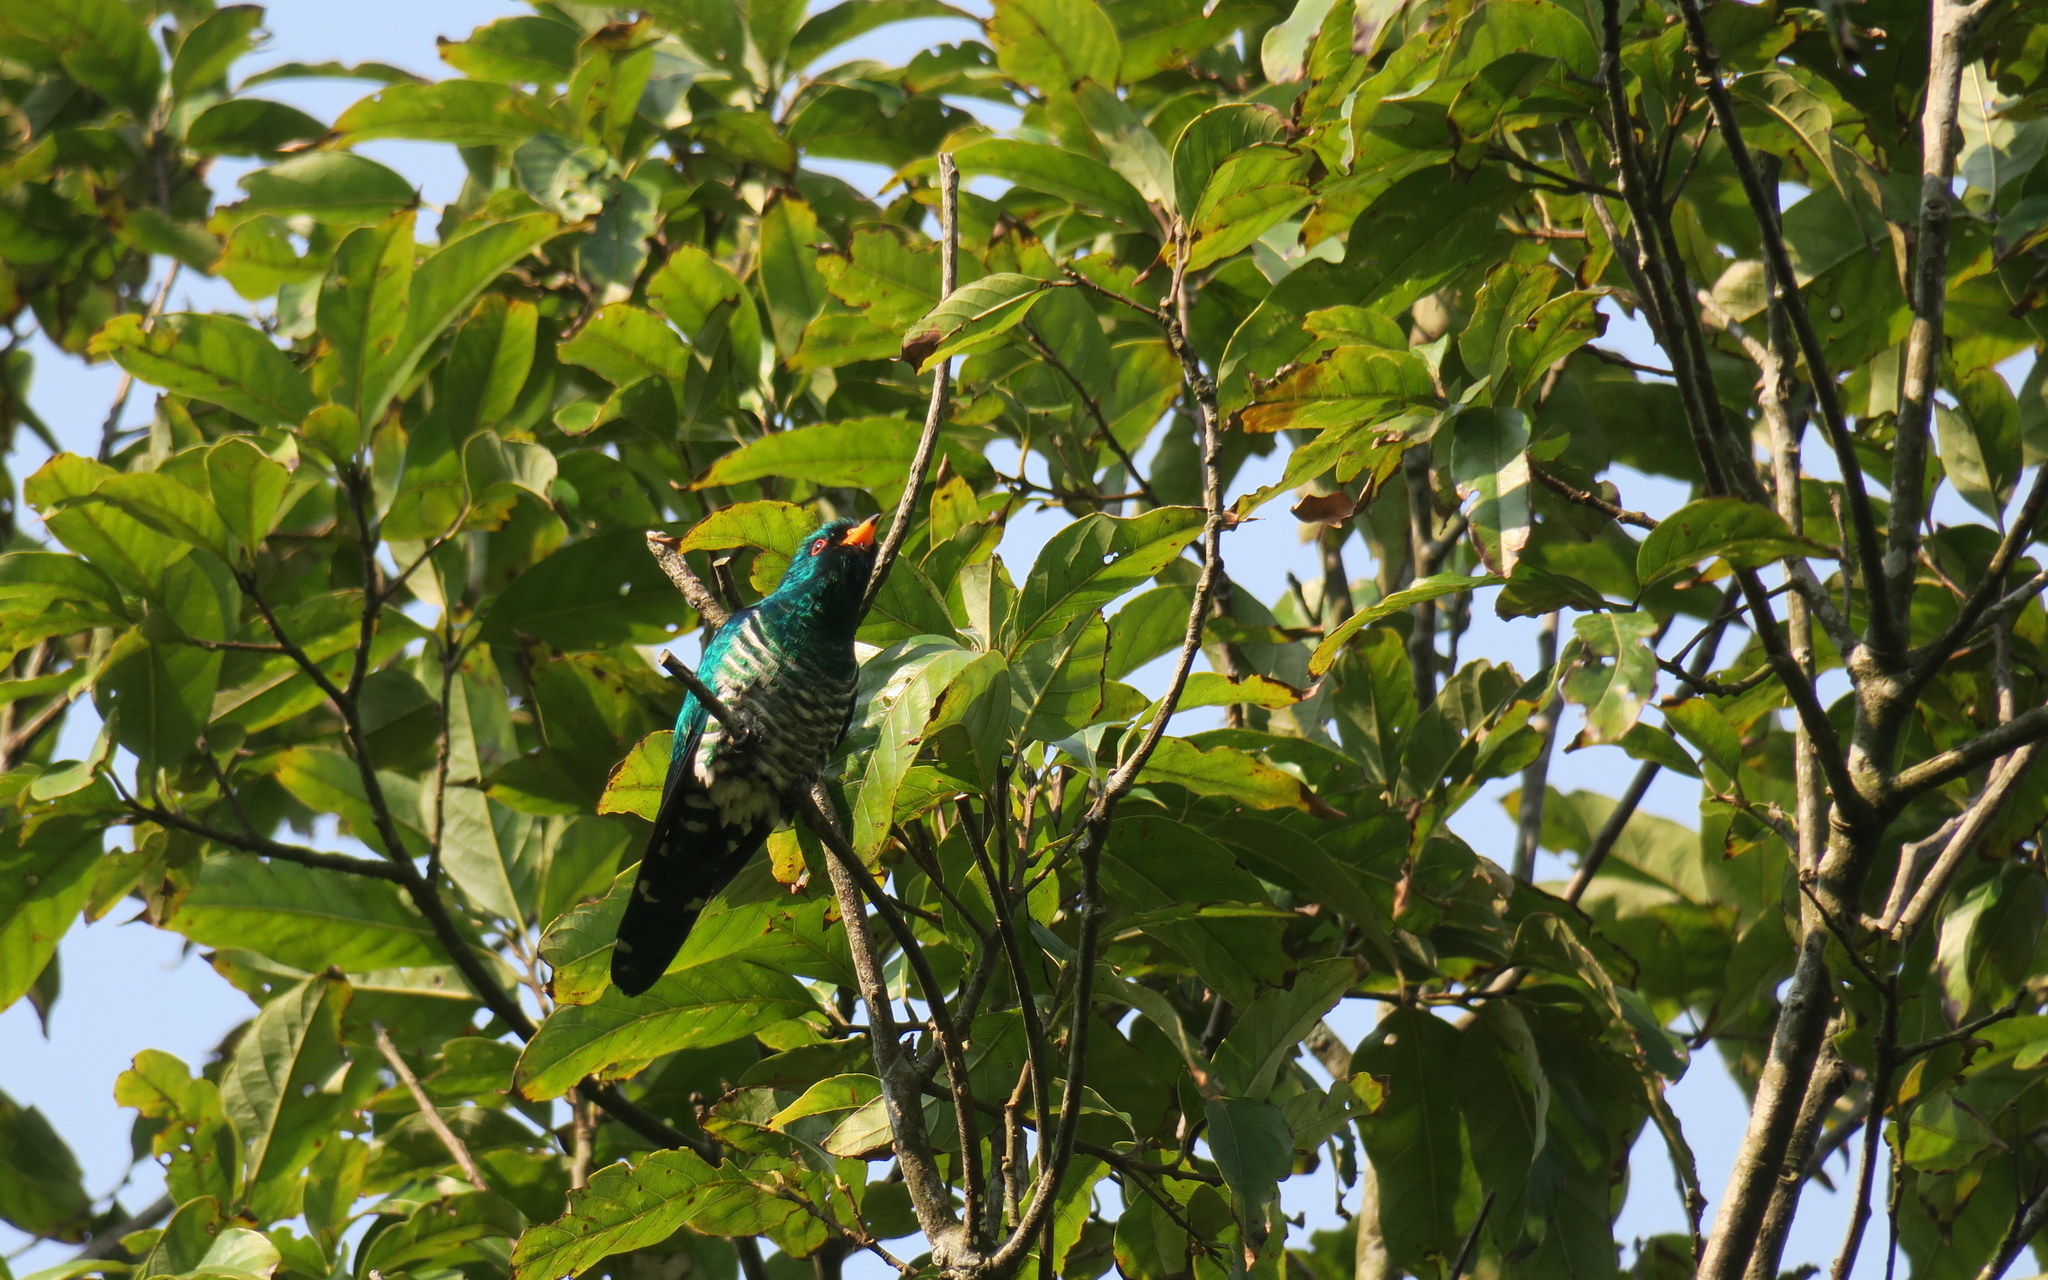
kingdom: Animalia
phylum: Chordata
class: Aves
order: Cuculiformes
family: Cuculidae
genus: Chrysococcyx
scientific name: Chrysococcyx maculatus
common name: Asian emerald cuckoo
